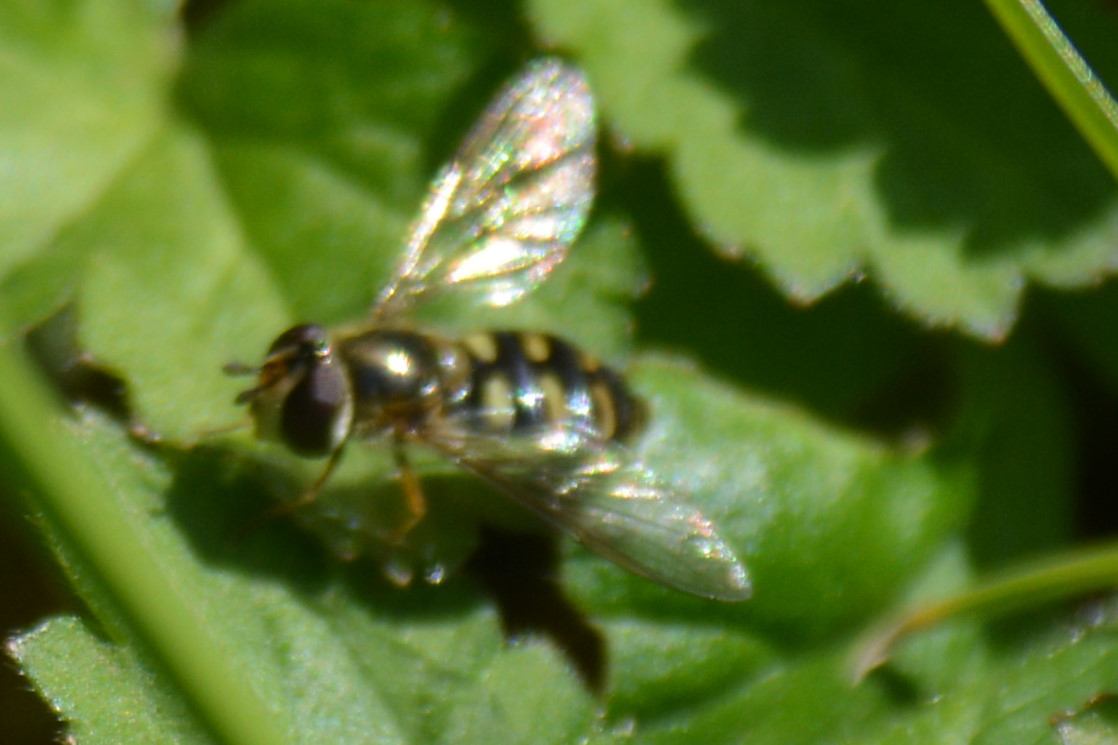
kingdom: Animalia
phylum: Arthropoda
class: Insecta
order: Diptera
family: Syrphidae
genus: Eupeodes
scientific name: Eupeodes luniger
